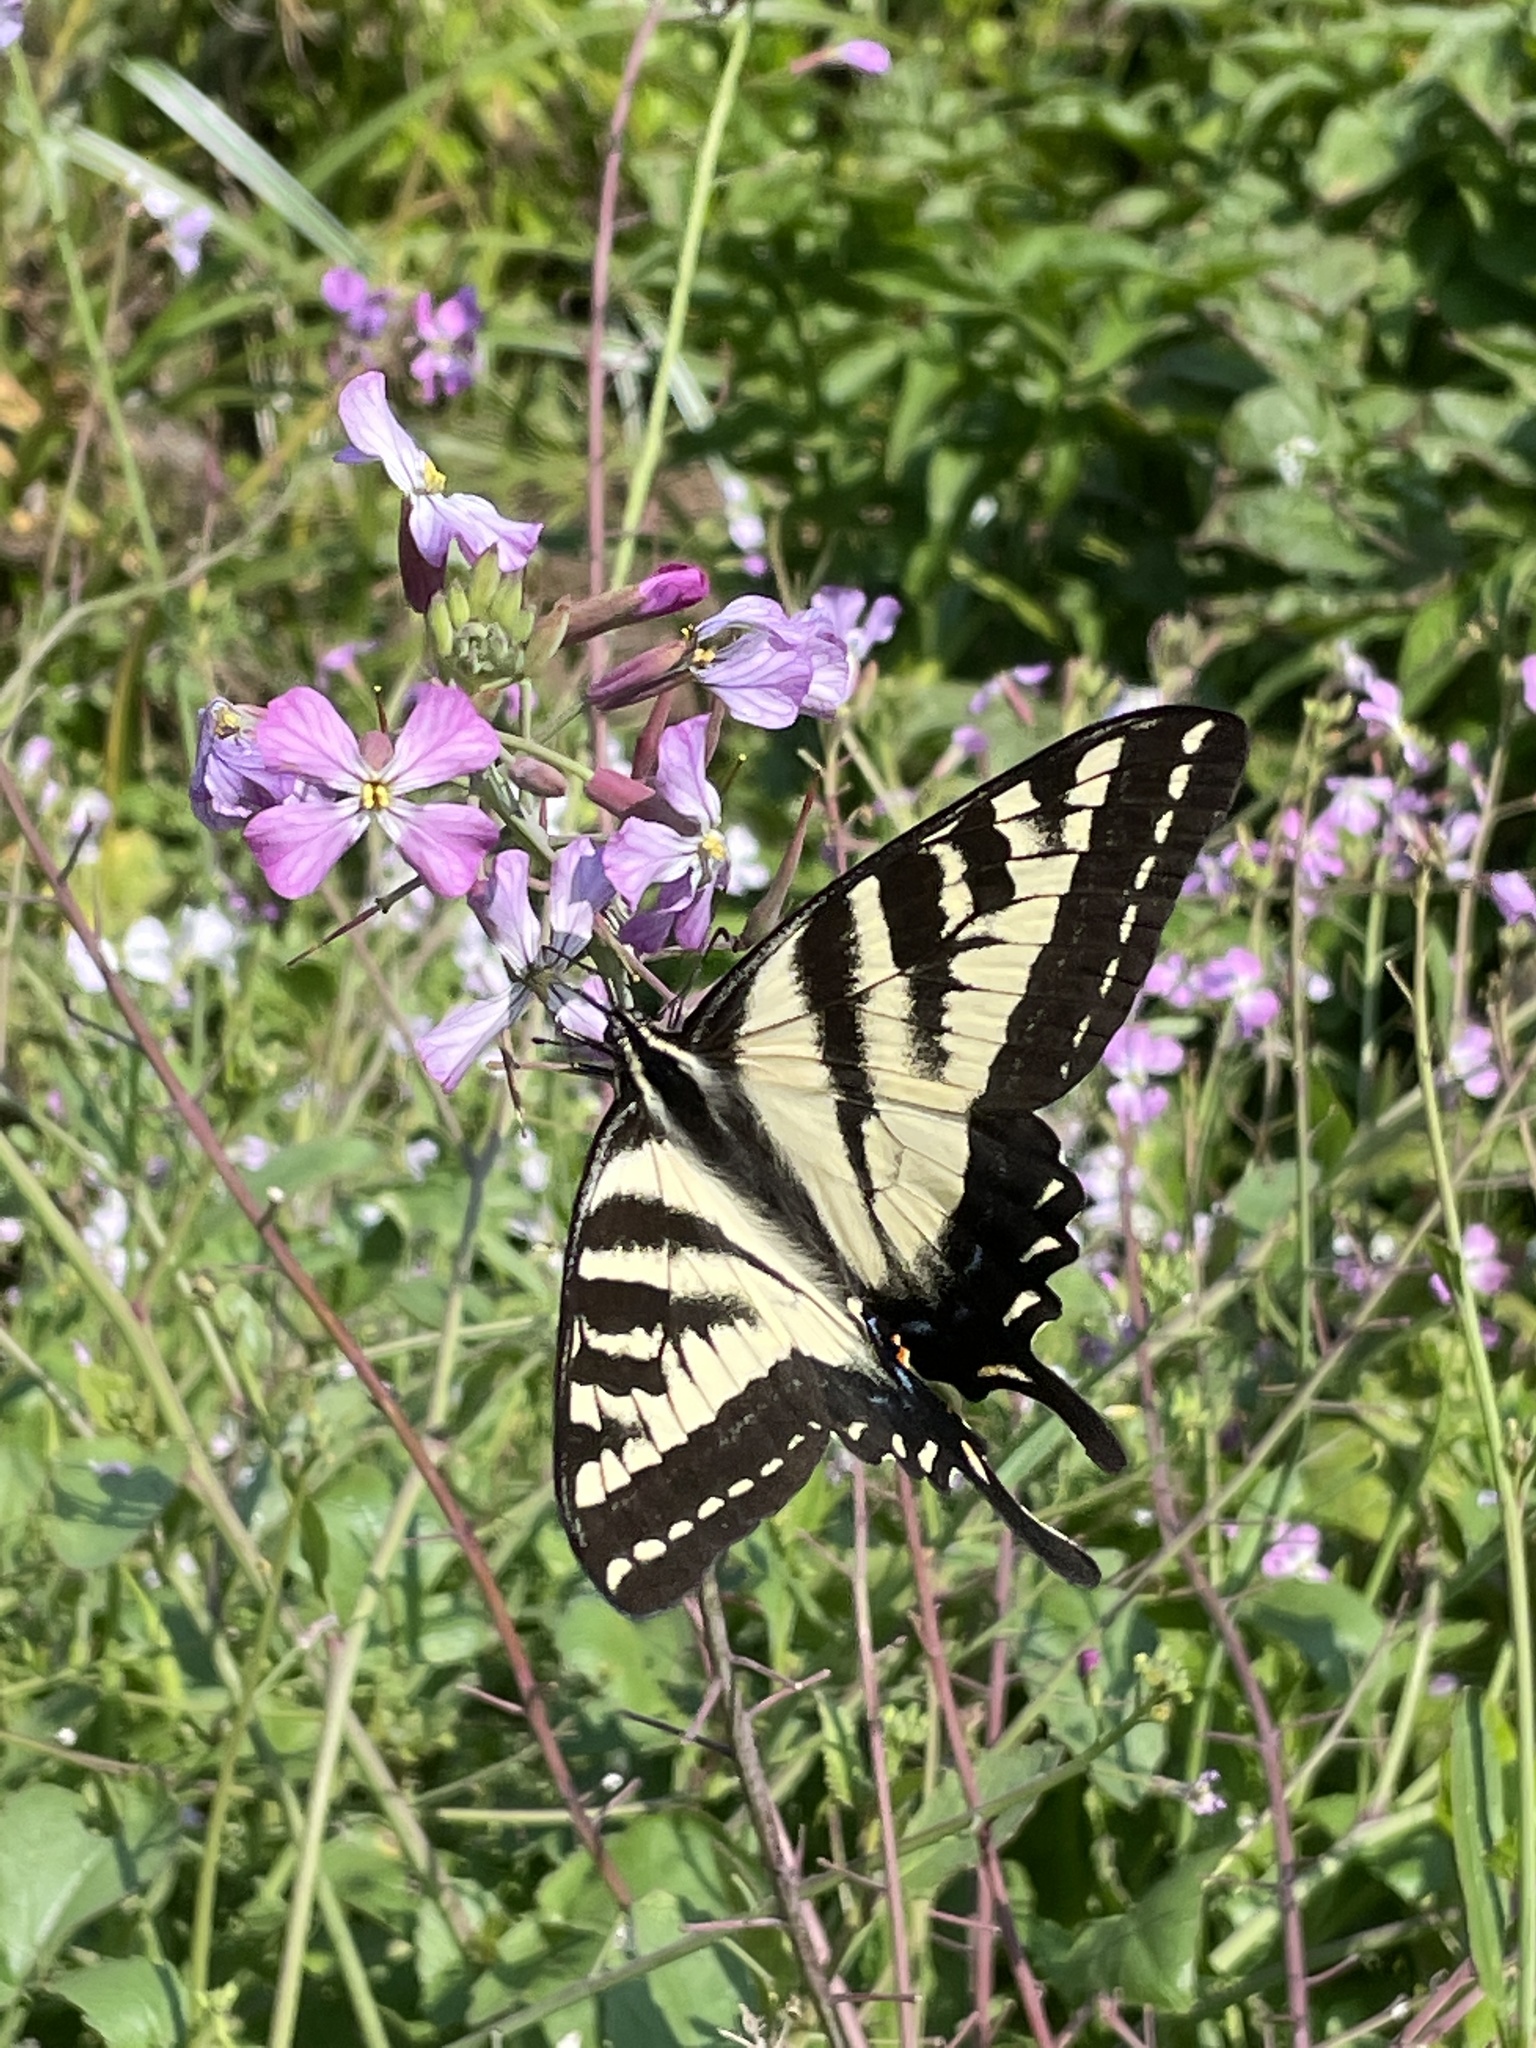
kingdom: Animalia
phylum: Arthropoda
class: Insecta
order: Lepidoptera
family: Papilionidae
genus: Papilio
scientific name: Papilio eurymedon
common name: Pale tiger swallowtail
